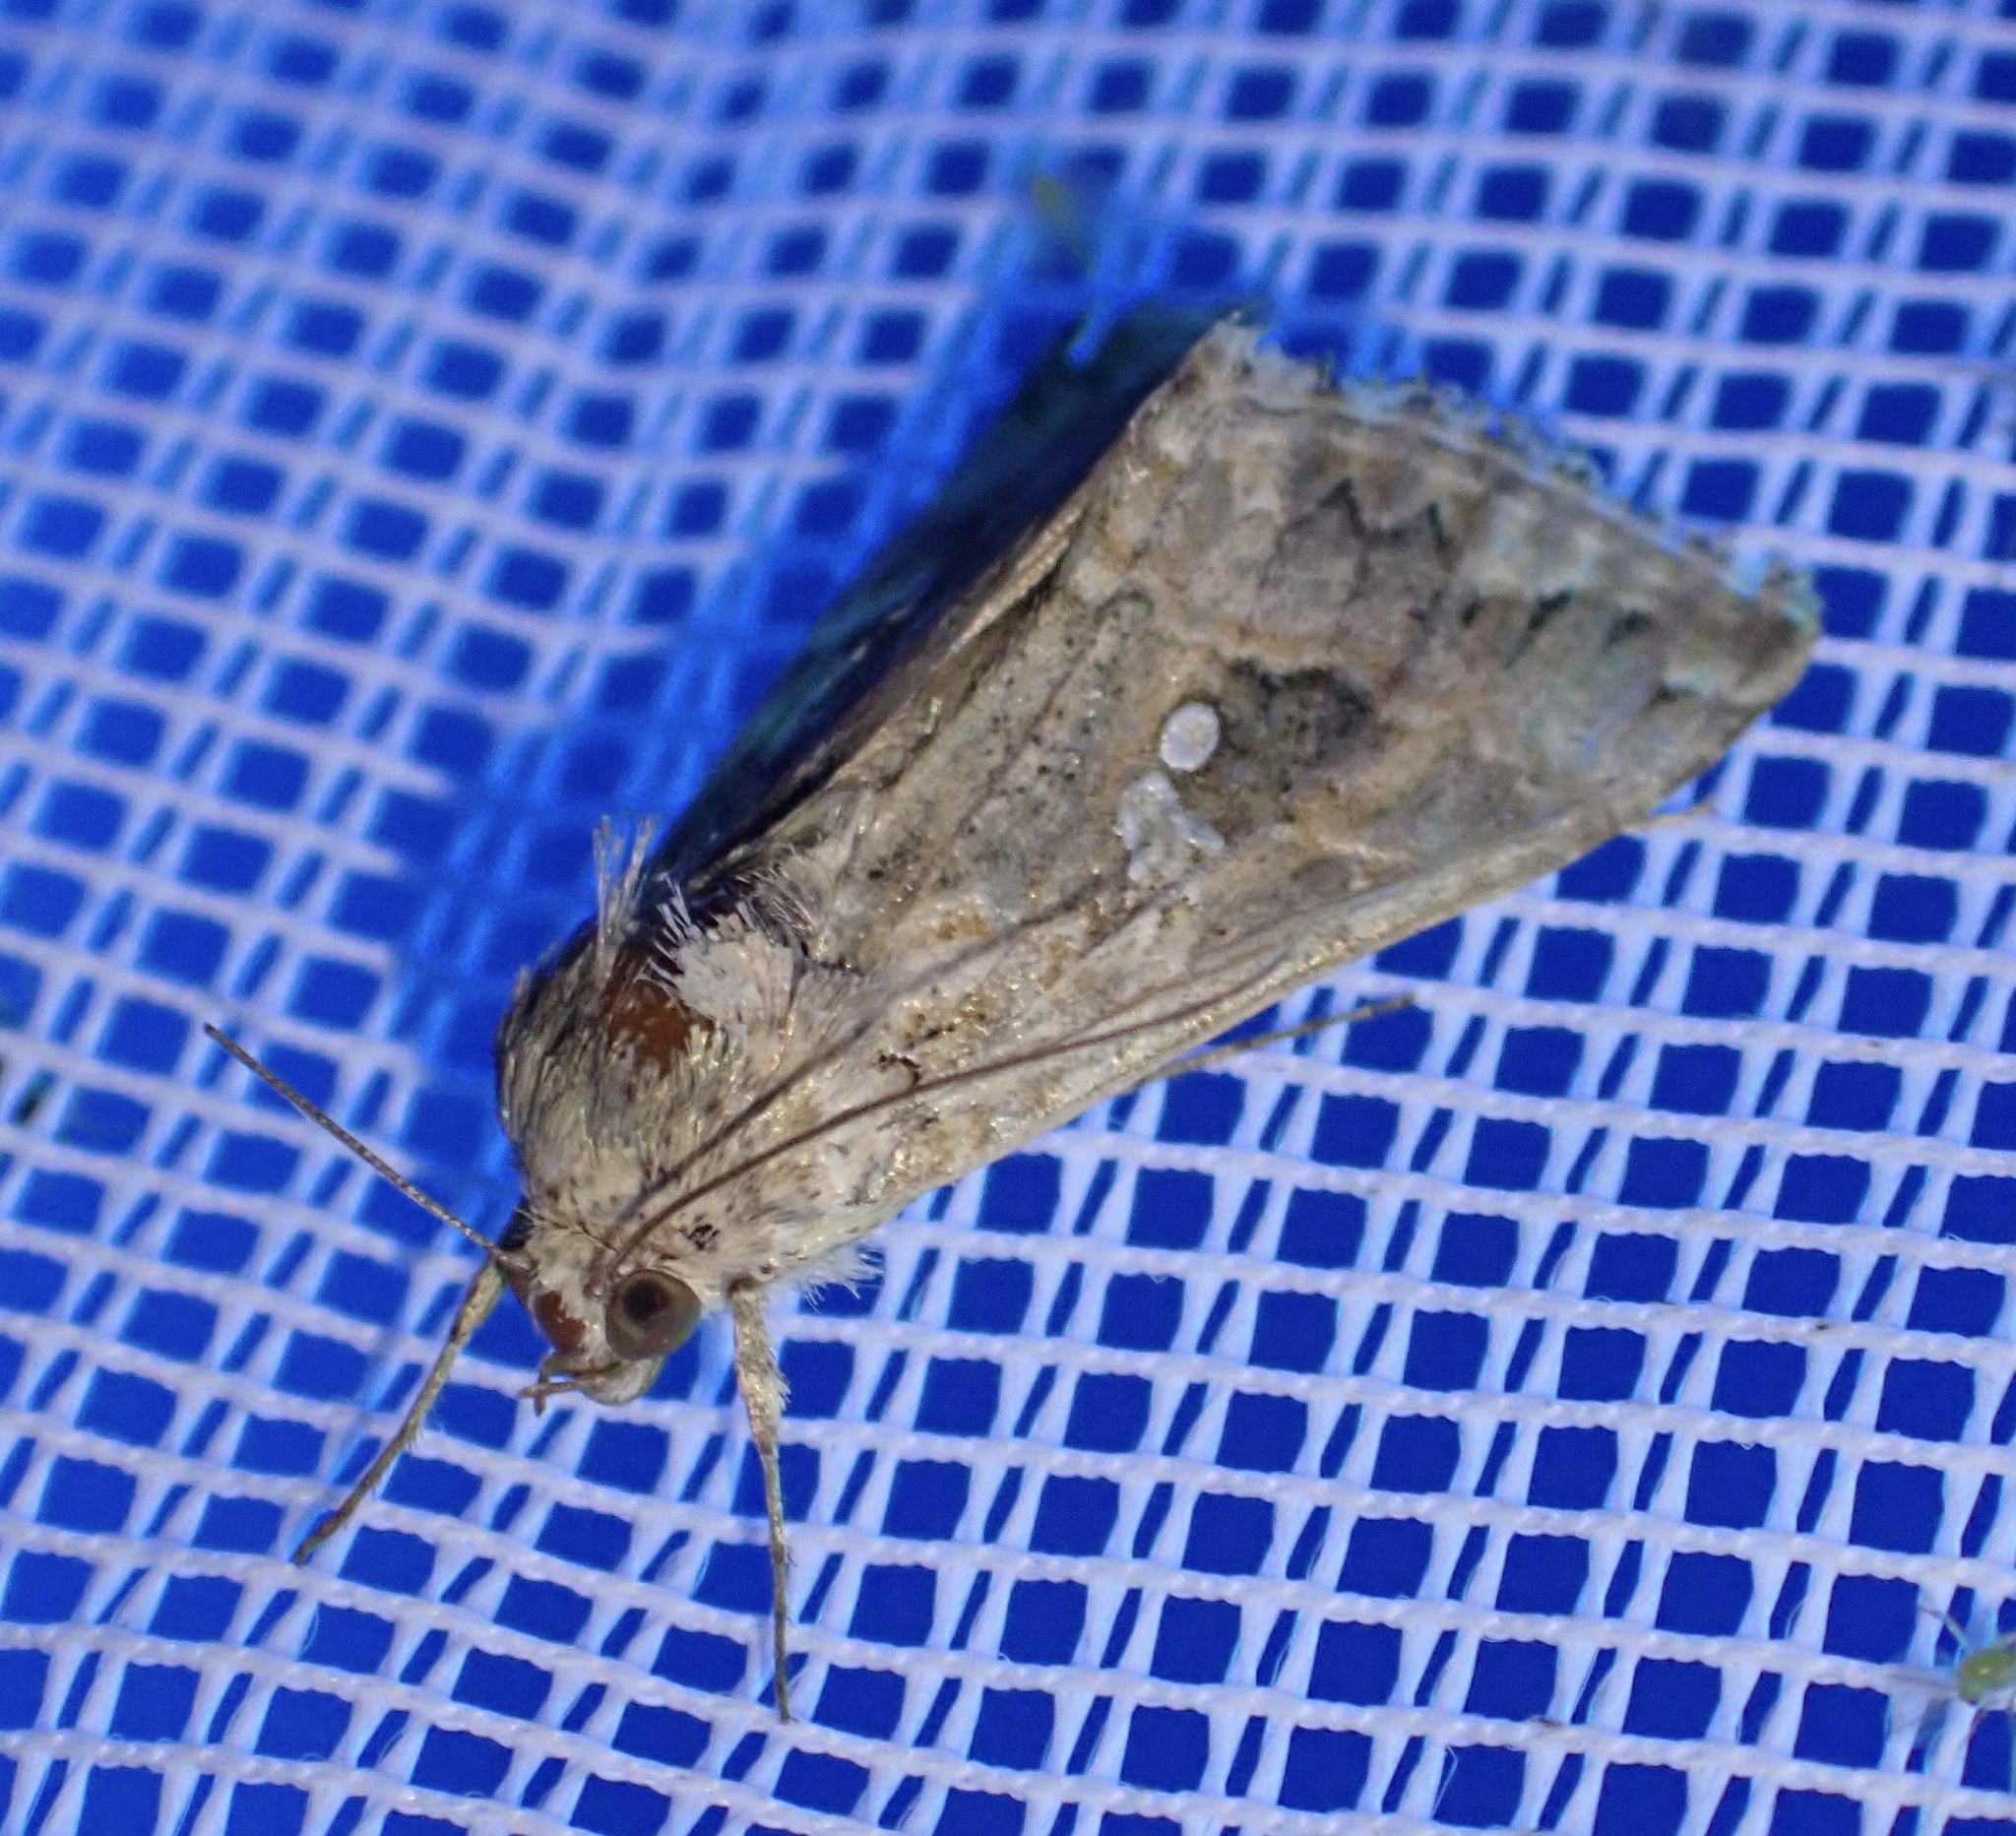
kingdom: Animalia
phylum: Arthropoda
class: Insecta
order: Lepidoptera
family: Noctuidae
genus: Trichoplusia
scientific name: Trichoplusia ni
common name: Ni moth
